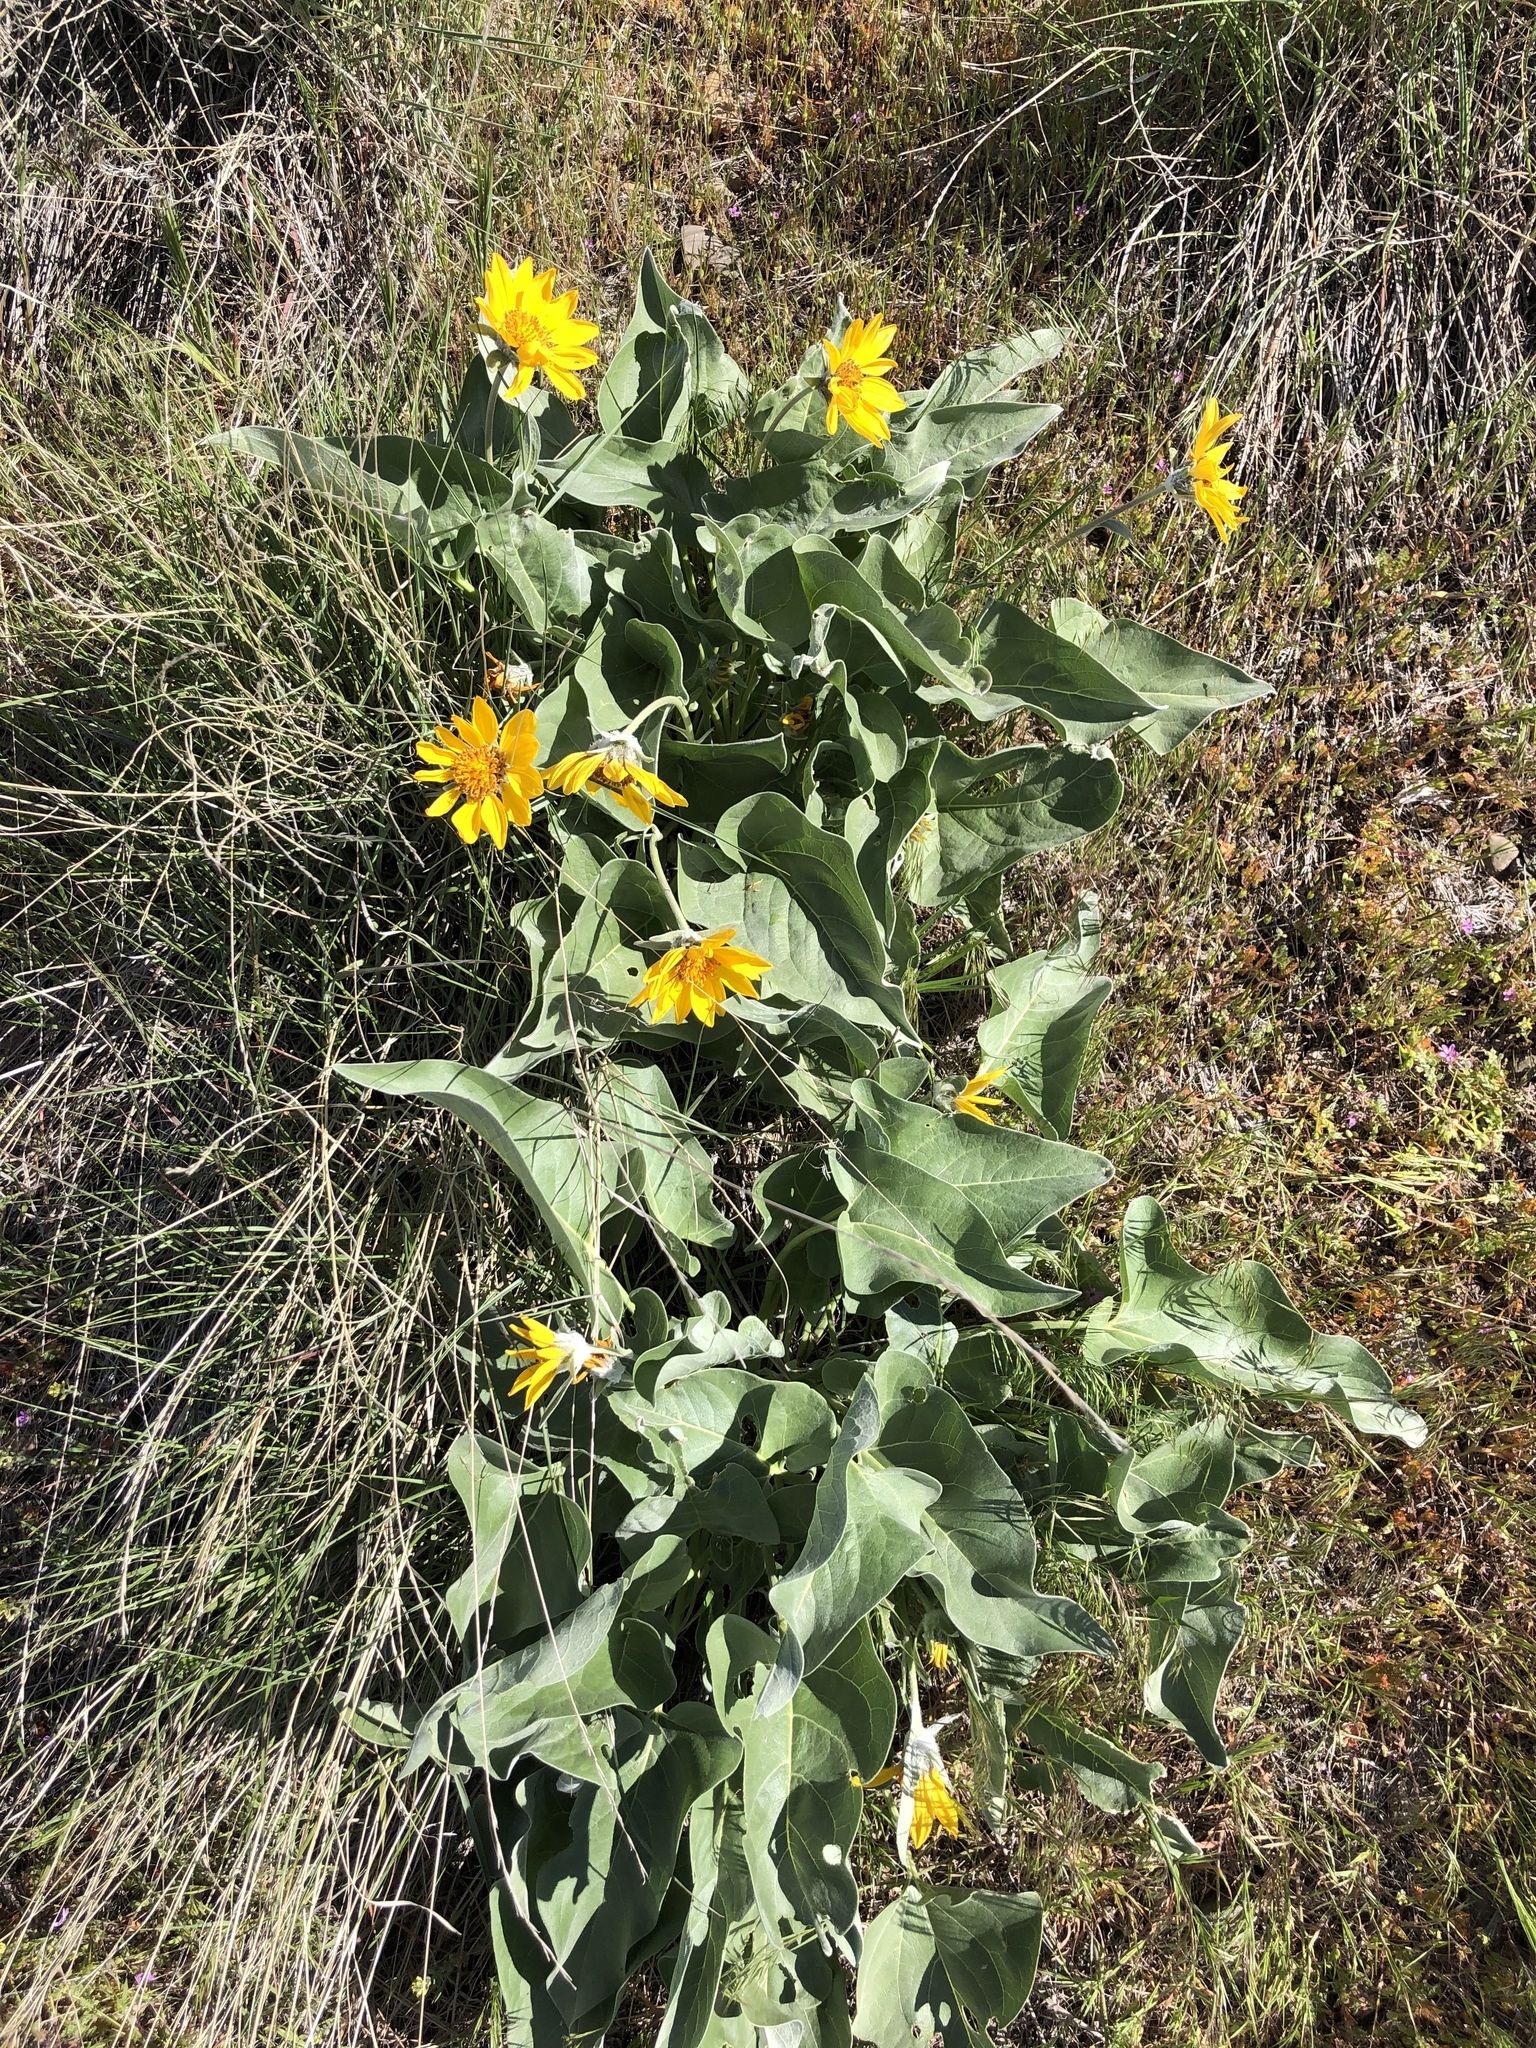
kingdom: Plantae
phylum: Tracheophyta
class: Magnoliopsida
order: Asterales
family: Asteraceae
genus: Wyethia
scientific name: Wyethia sagittata
